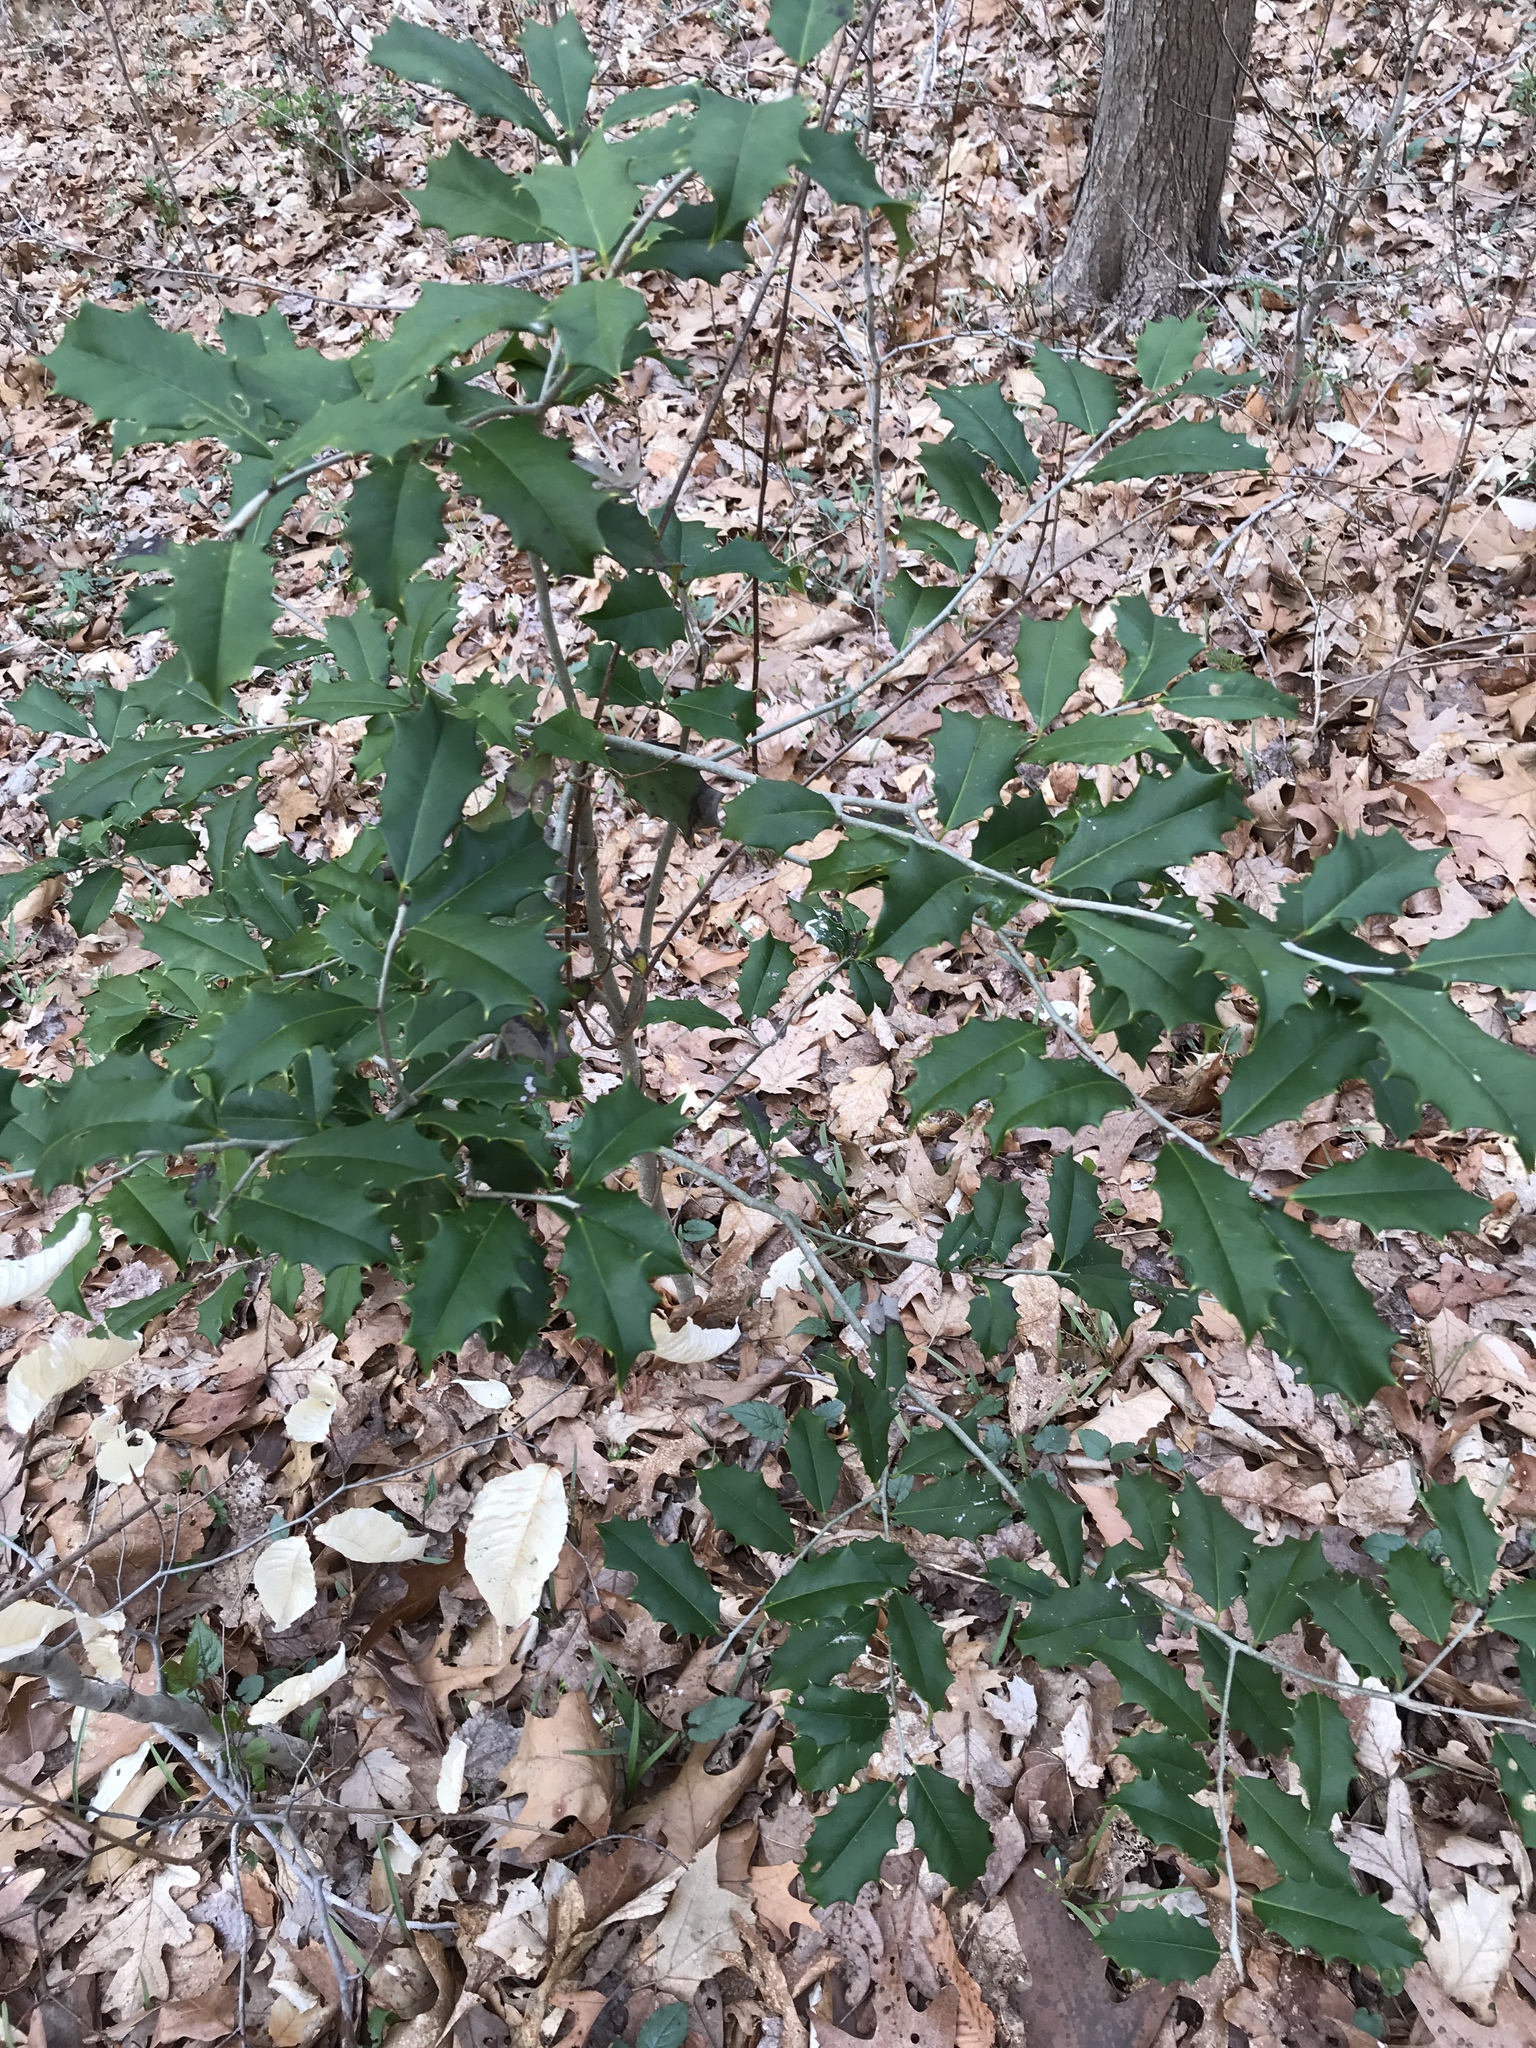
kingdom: Plantae
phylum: Tracheophyta
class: Magnoliopsida
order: Aquifoliales
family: Aquifoliaceae
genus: Ilex
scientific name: Ilex opaca
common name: American holly
